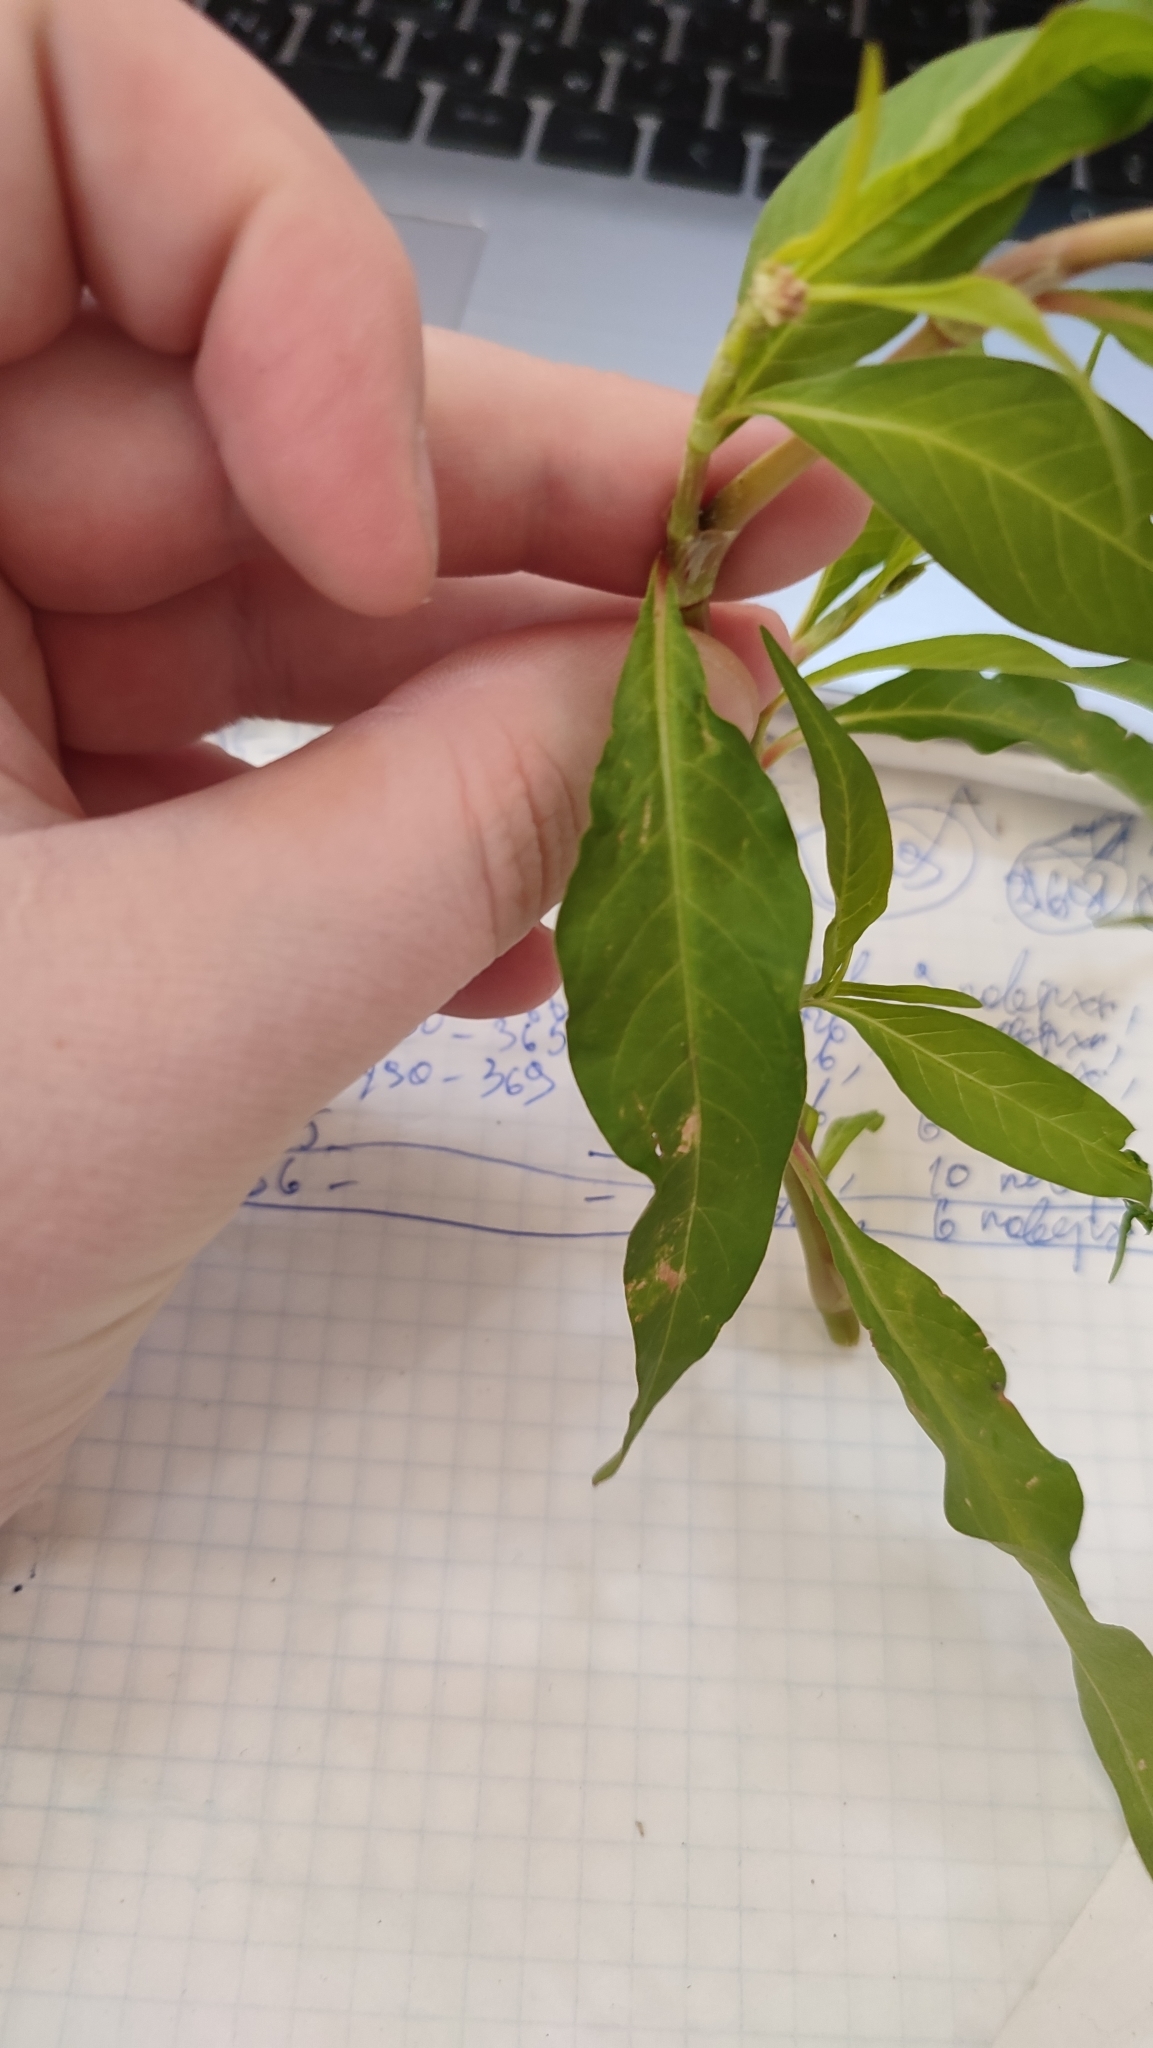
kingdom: Plantae
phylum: Tracheophyta
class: Magnoliopsida
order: Caryophyllales
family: Polygonaceae
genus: Persicaria
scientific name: Persicaria lapathifolia
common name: Curlytop knotweed
